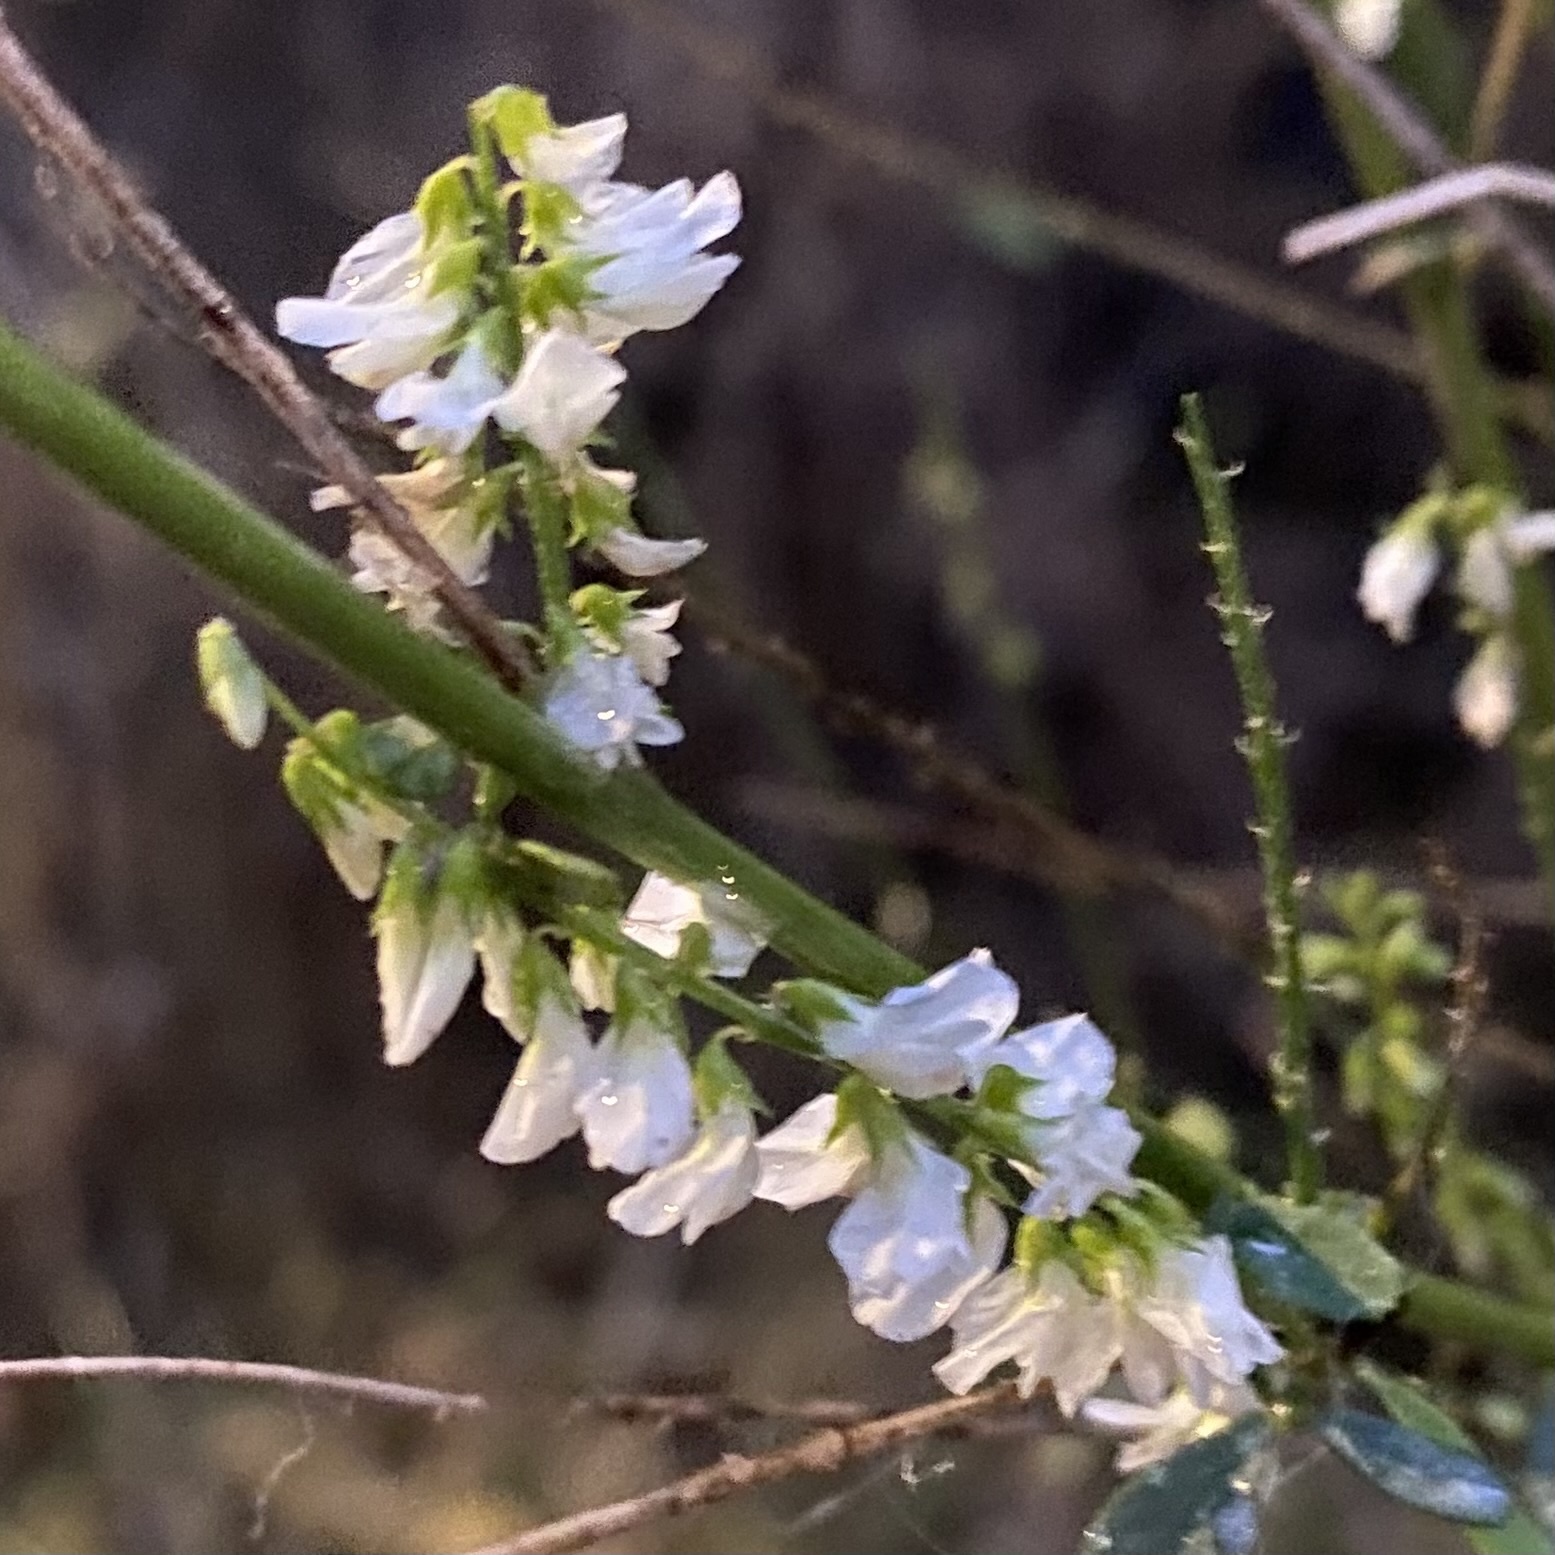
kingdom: Plantae
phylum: Tracheophyta
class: Magnoliopsida
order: Fabales
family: Fabaceae
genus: Melilotus
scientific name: Melilotus albus
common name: White melilot
